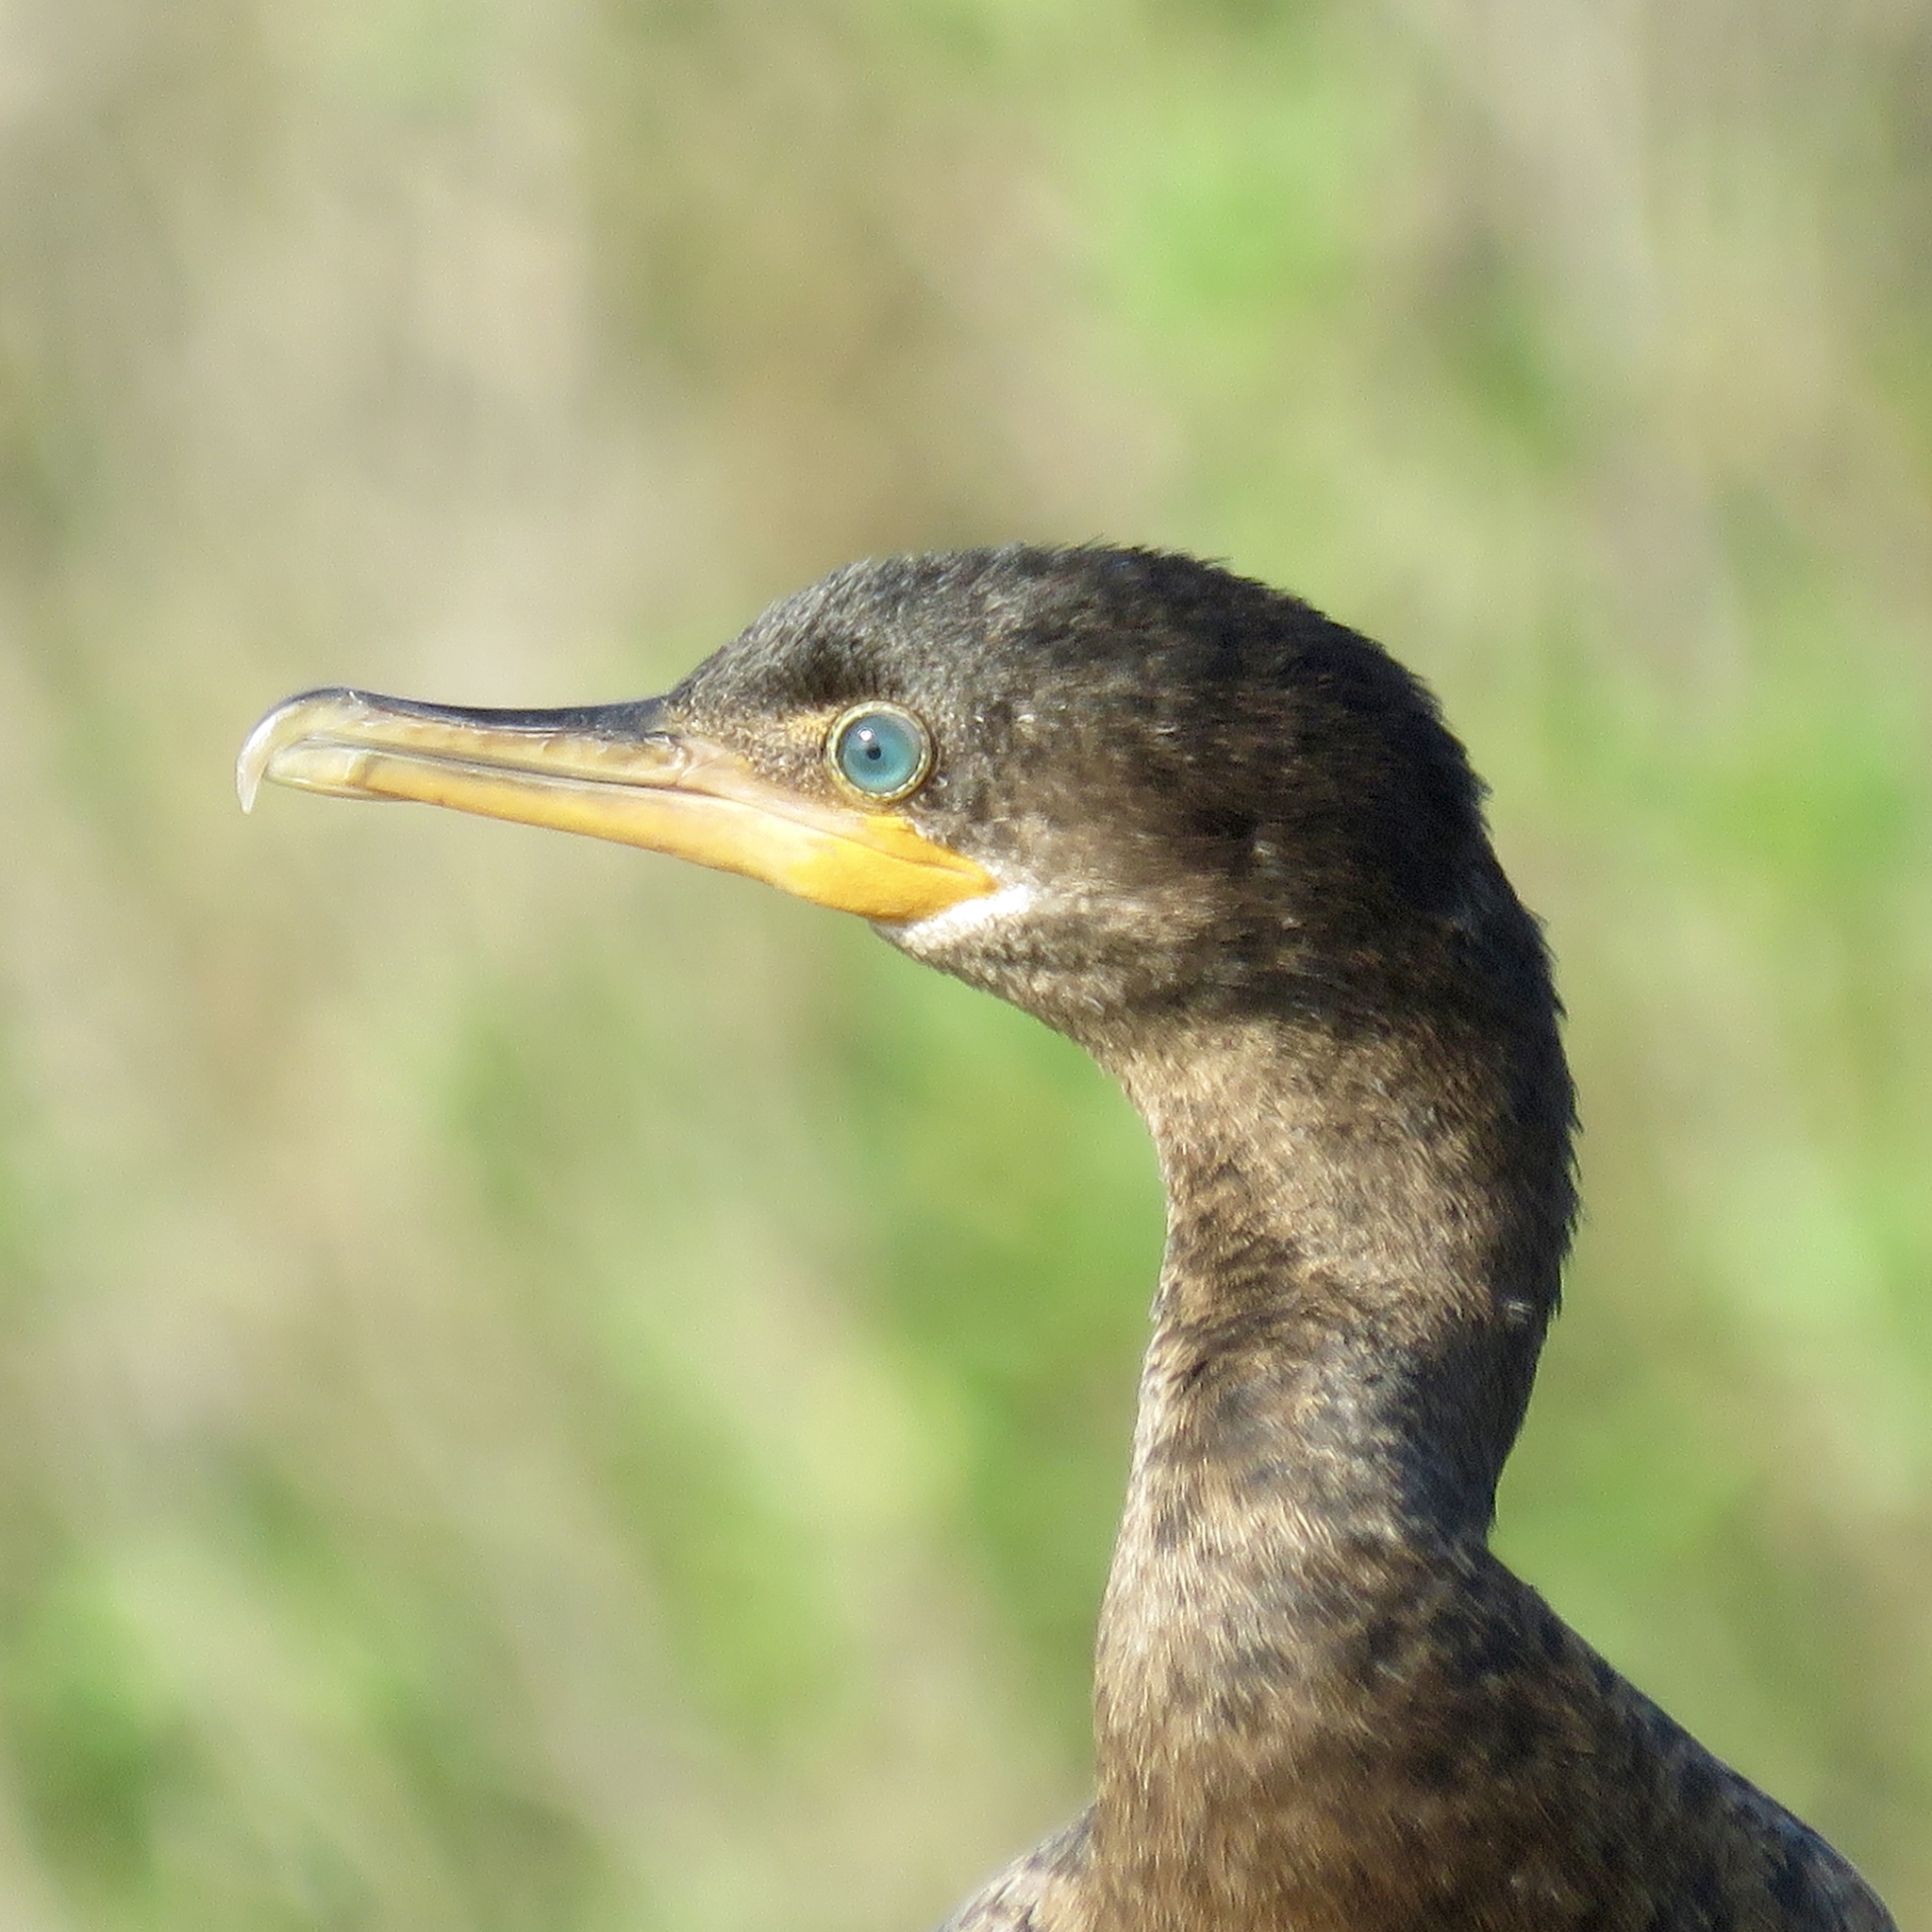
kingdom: Animalia
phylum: Chordata
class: Aves
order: Suliformes
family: Phalacrocoracidae
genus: Phalacrocorax
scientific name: Phalacrocorax brasilianus
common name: Neotropic cormorant
